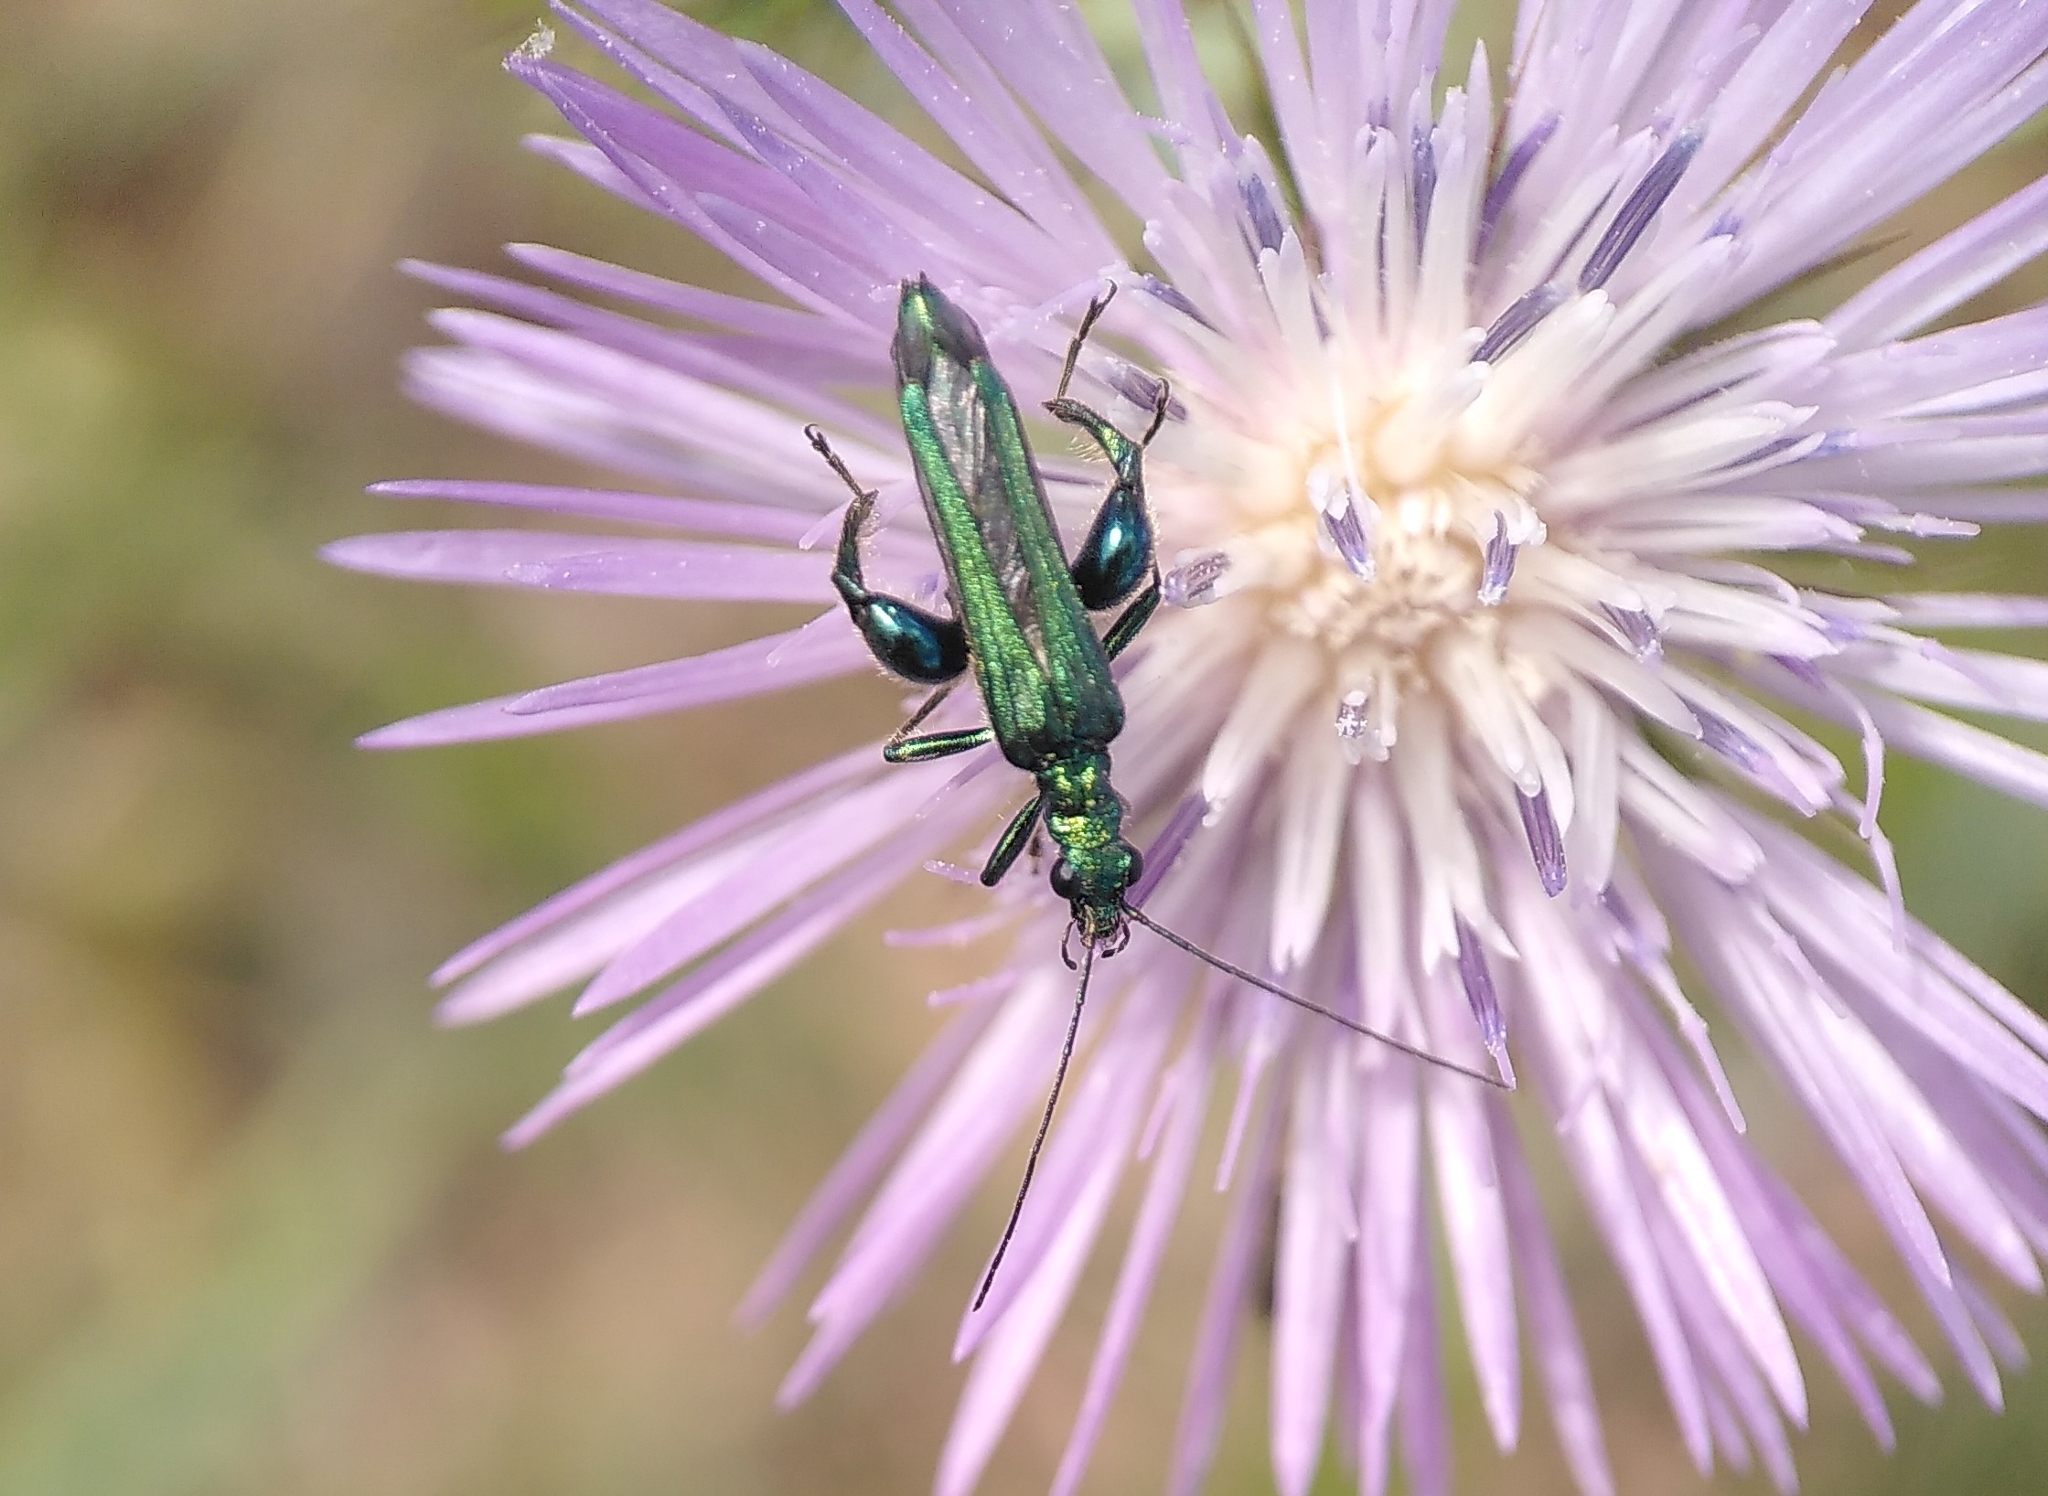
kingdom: Animalia
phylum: Arthropoda
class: Insecta
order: Coleoptera
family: Oedemeridae
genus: Oedemera
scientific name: Oedemera nobilis
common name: Swollen-thighed beetle
